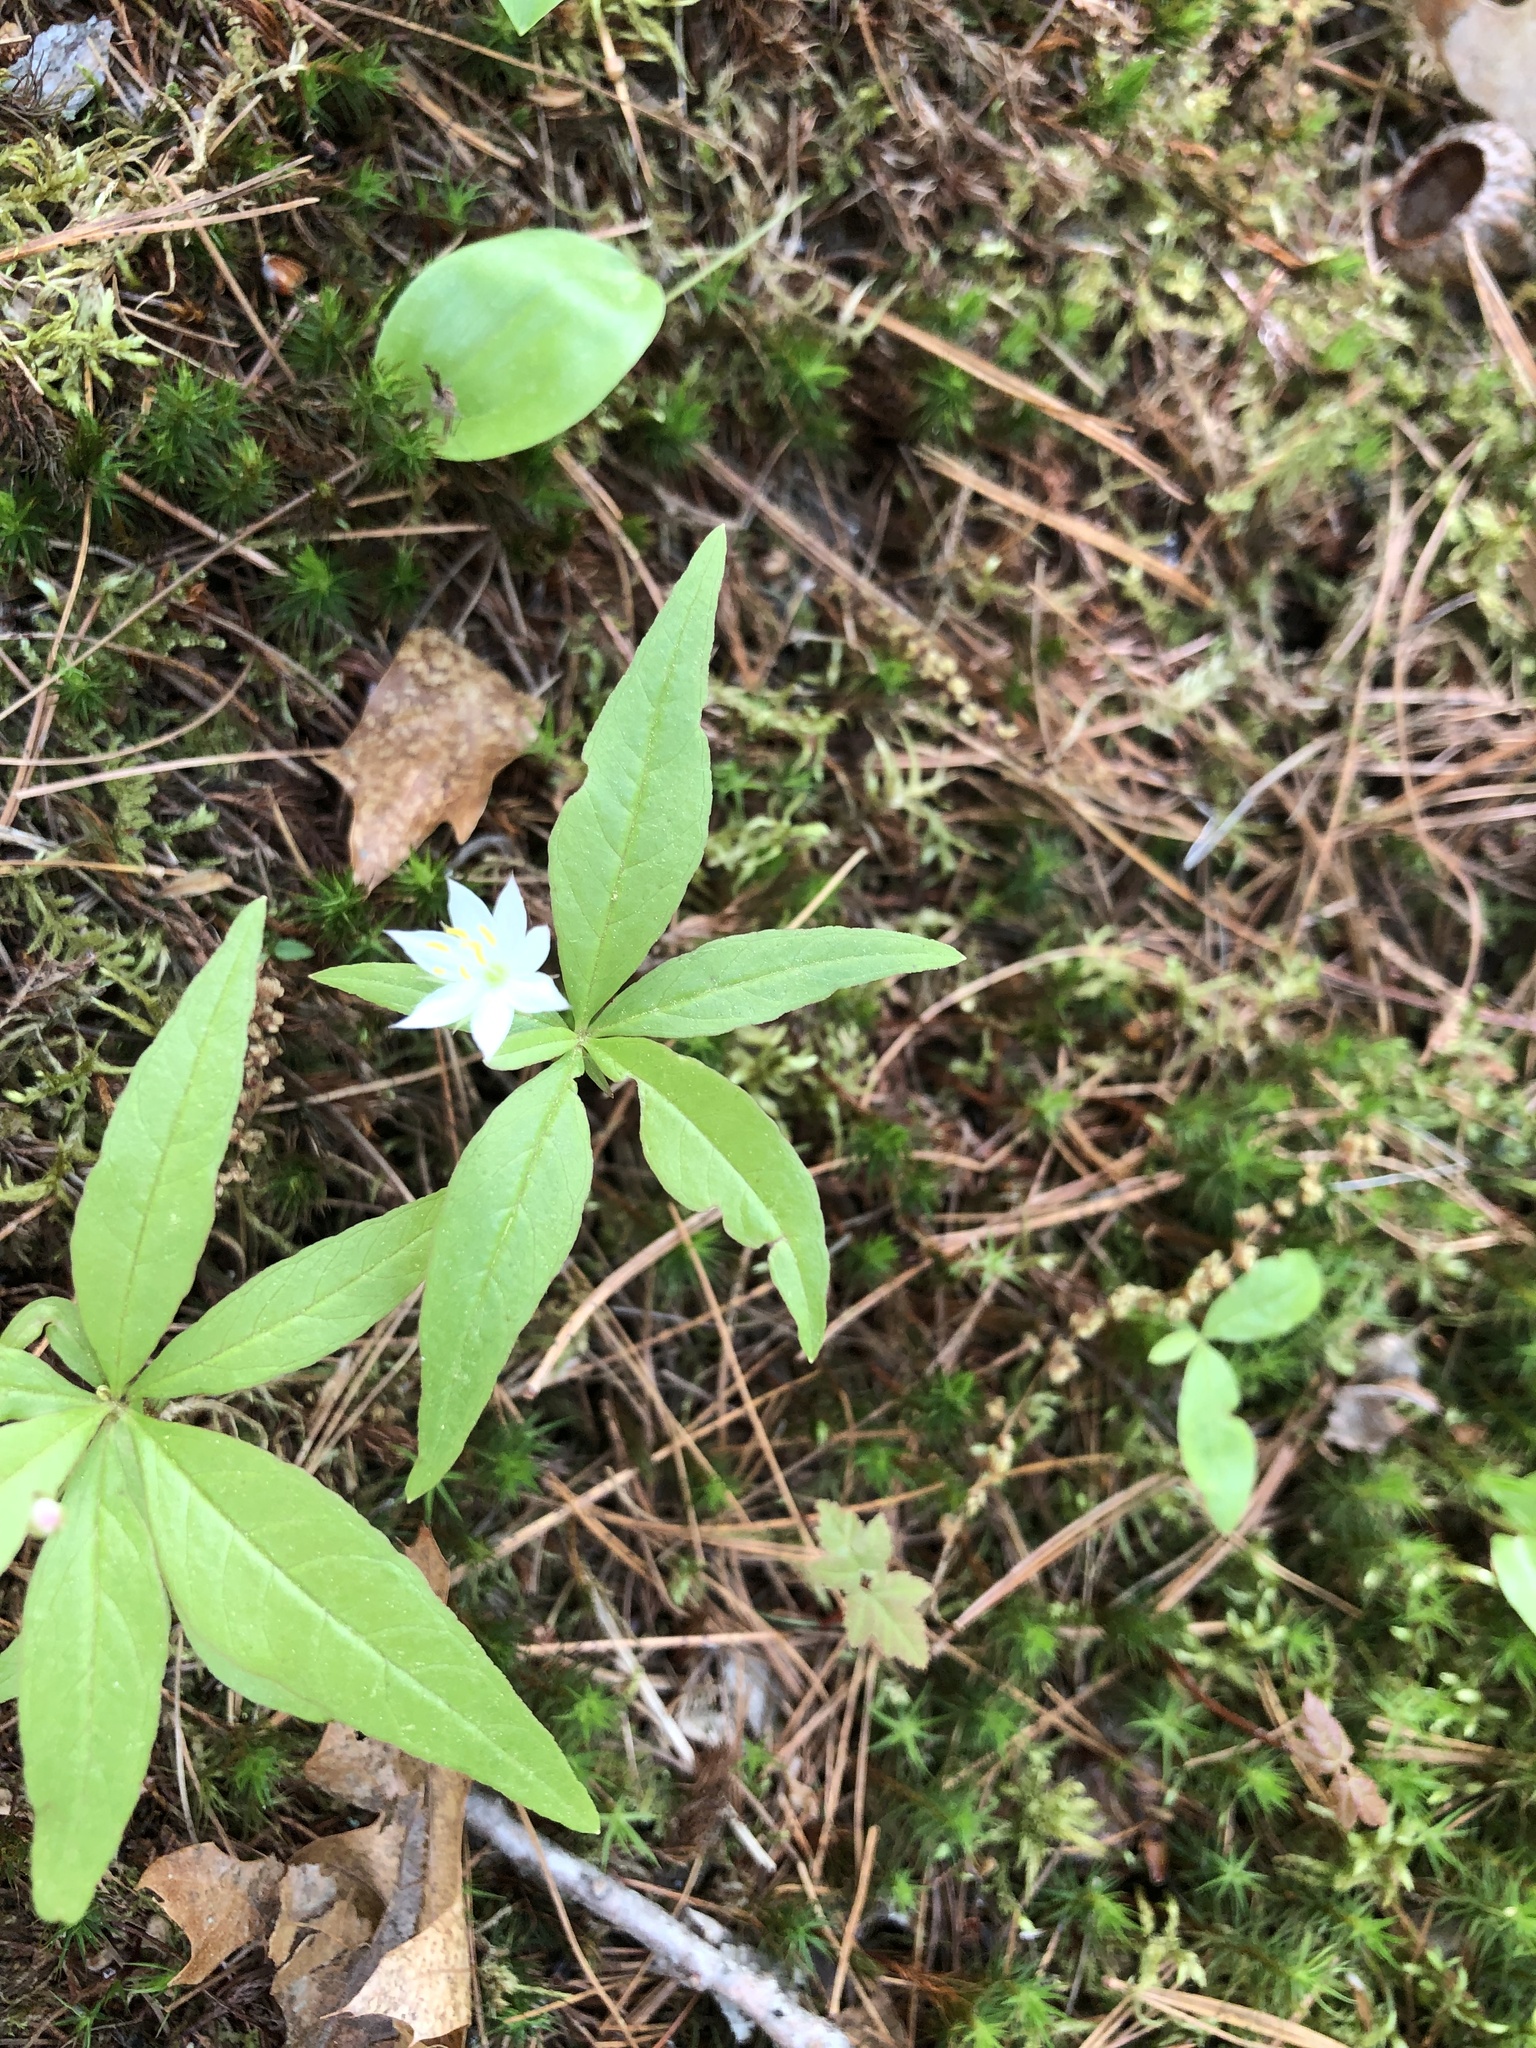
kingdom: Plantae
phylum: Tracheophyta
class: Magnoliopsida
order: Ericales
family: Primulaceae
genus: Lysimachia
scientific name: Lysimachia borealis
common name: American starflower
